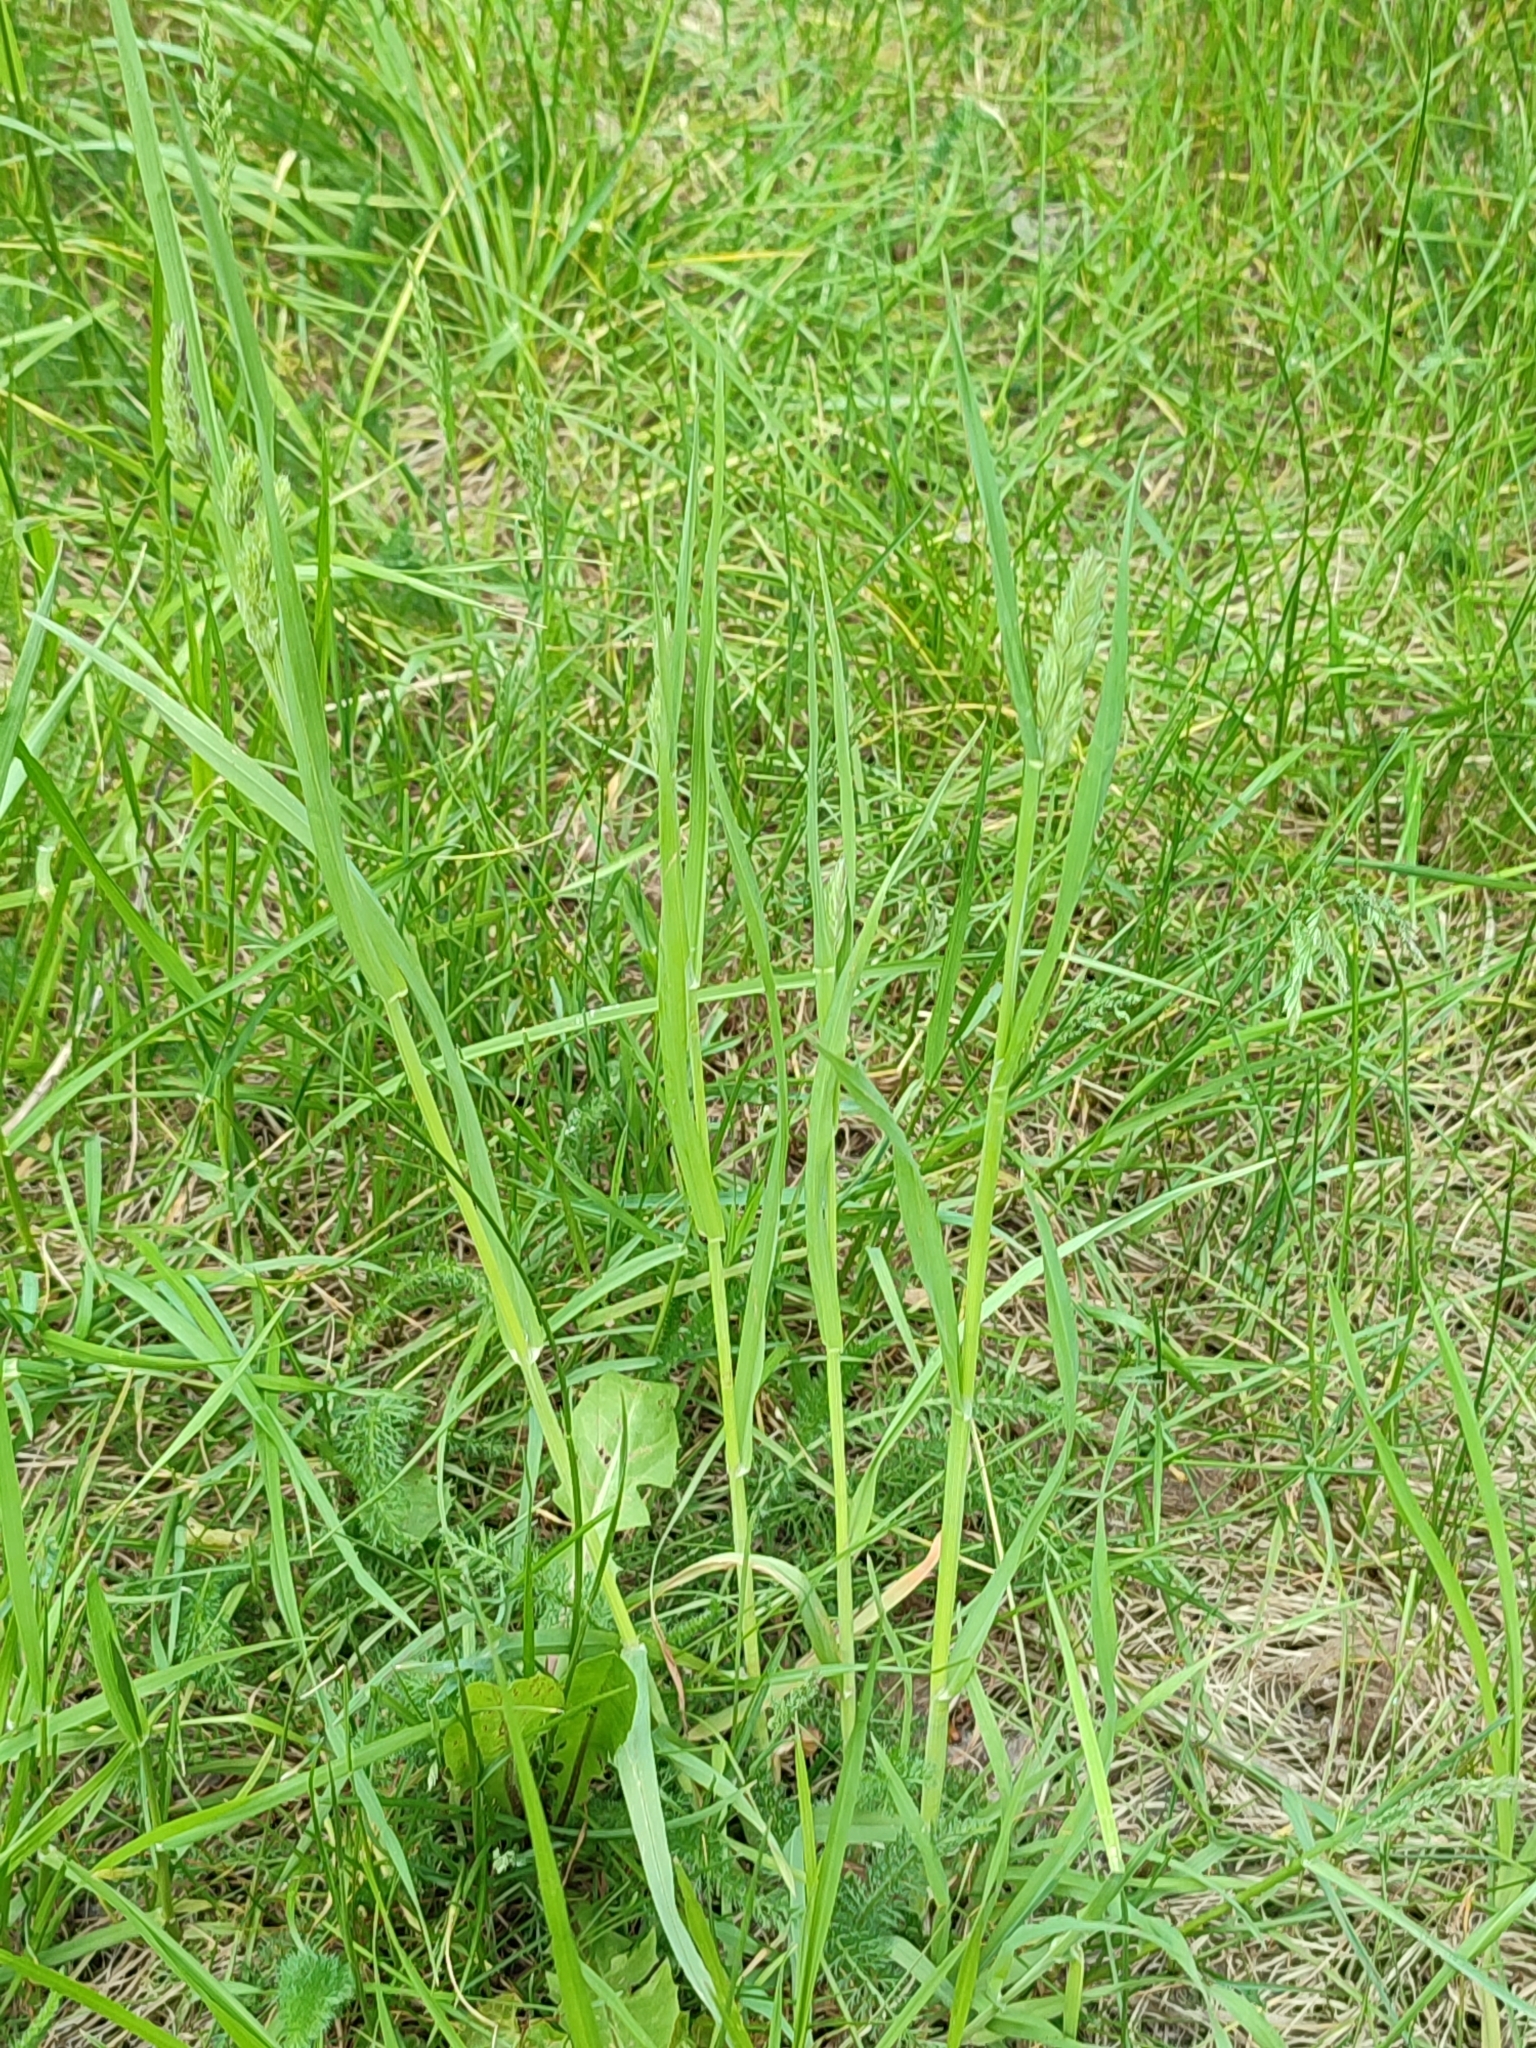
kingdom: Plantae
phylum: Tracheophyta
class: Liliopsida
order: Poales
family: Poaceae
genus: Dactylis
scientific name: Dactylis glomerata
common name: Orchardgrass
